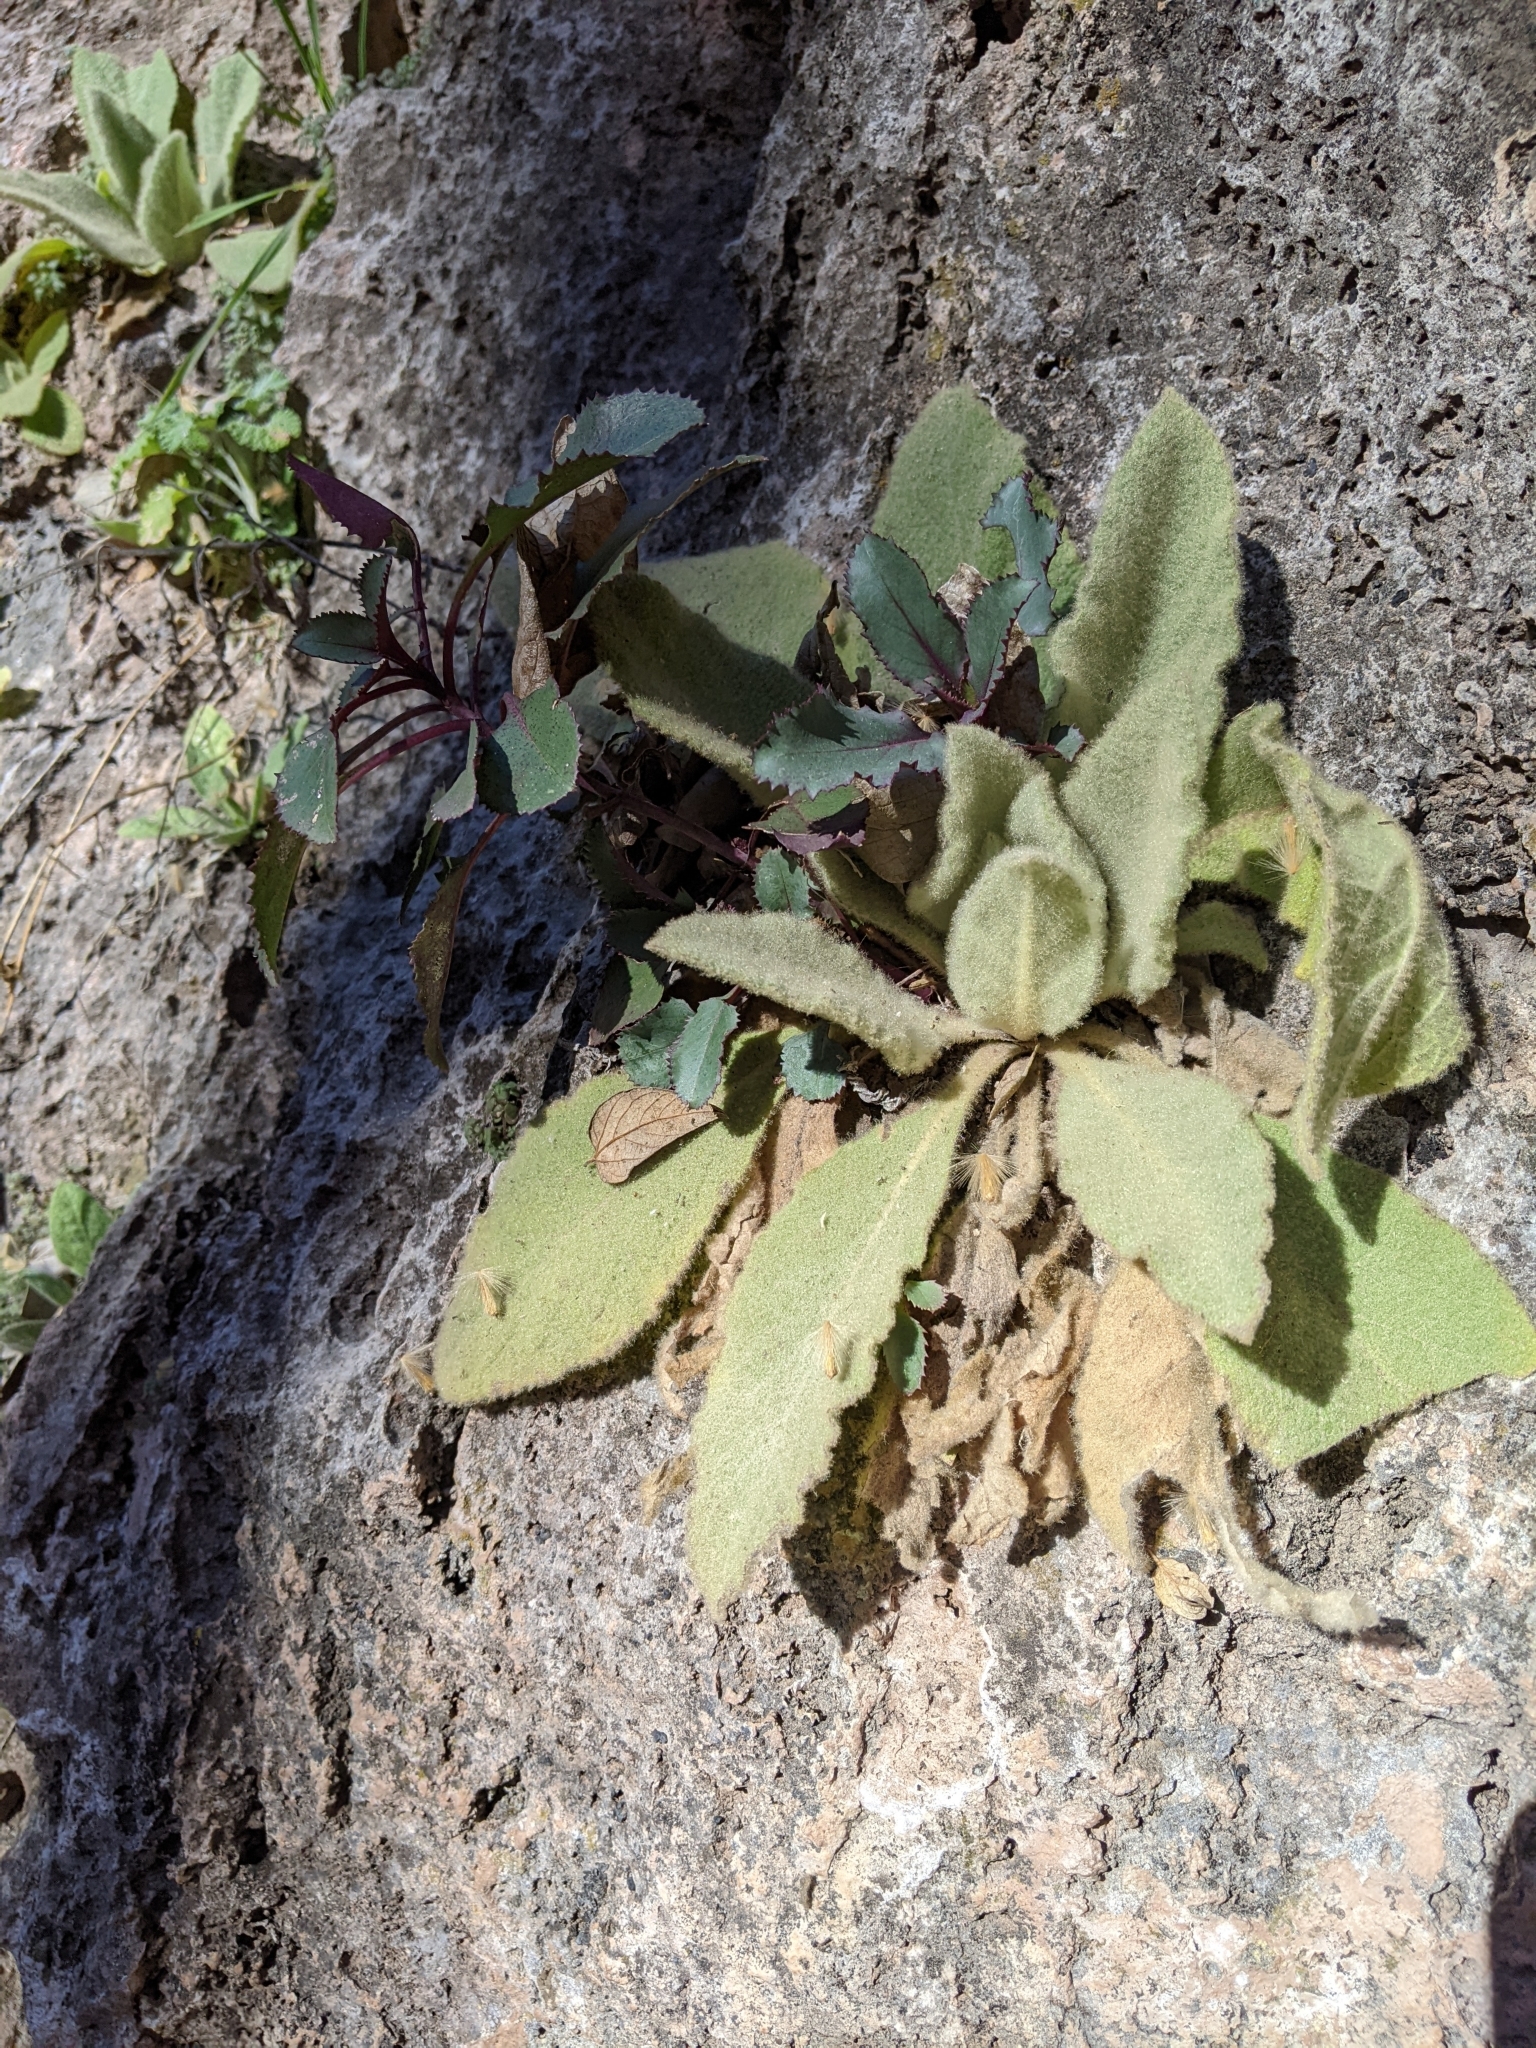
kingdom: Plantae
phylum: Tracheophyta
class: Magnoliopsida
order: Lamiales
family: Scrophulariaceae
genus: Verbascum
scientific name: Verbascum thapsus
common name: Common mullein
